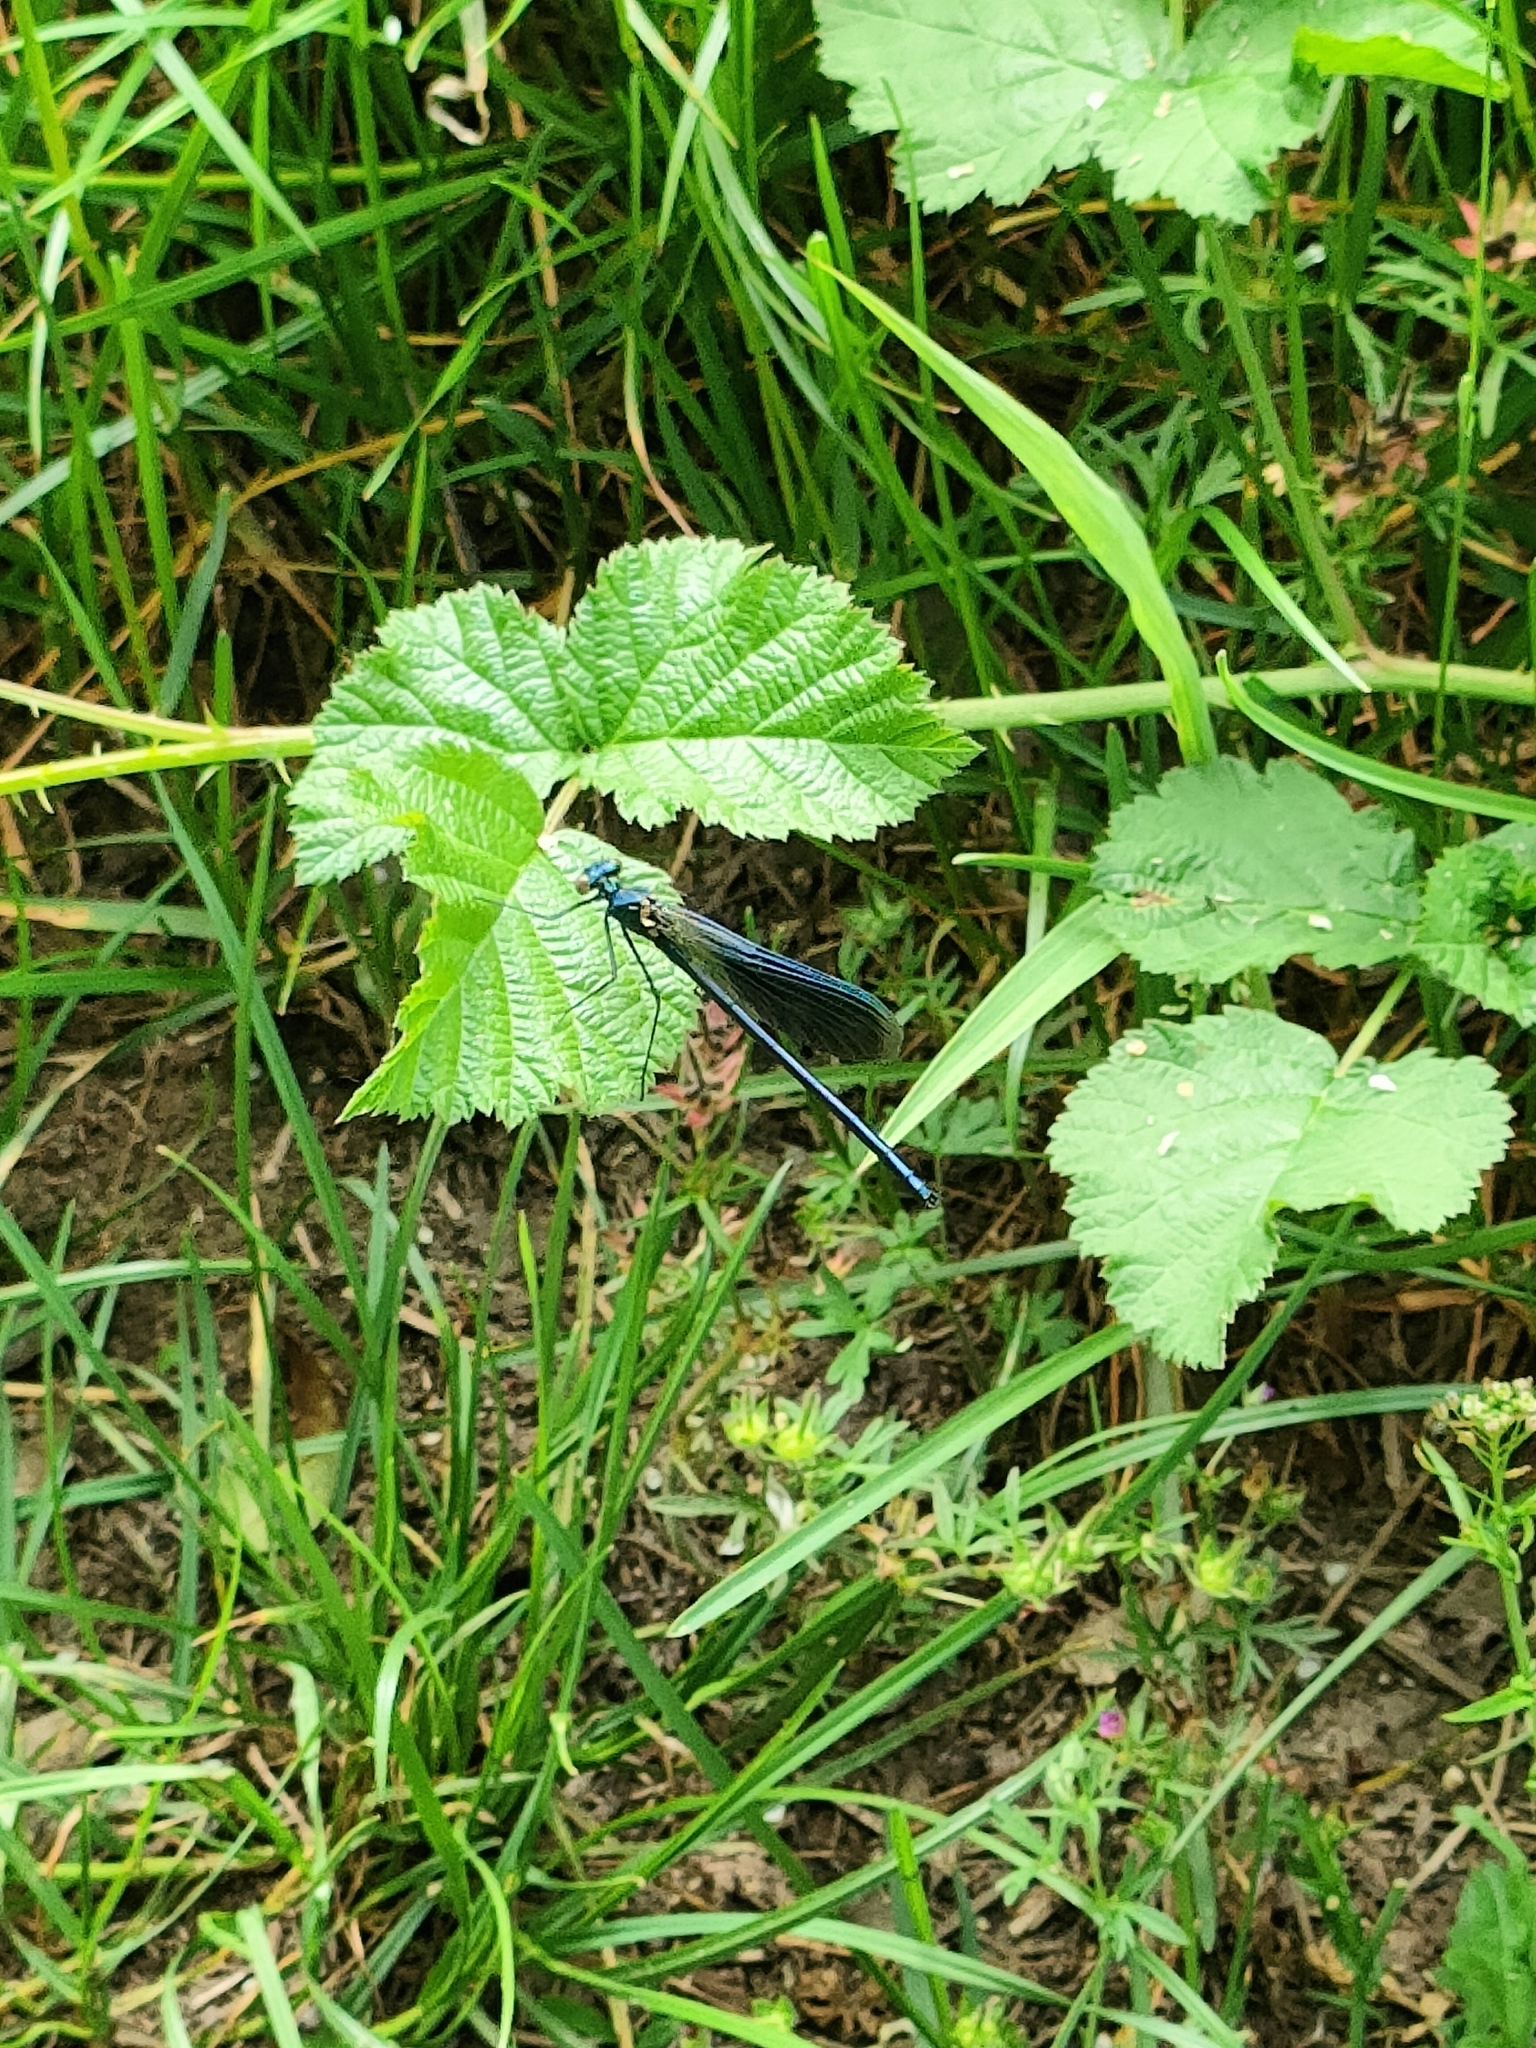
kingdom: Animalia
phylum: Arthropoda
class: Insecta
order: Odonata
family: Calopterygidae
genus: Calopteryx
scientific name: Calopteryx splendens
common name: Banded demoiselle
